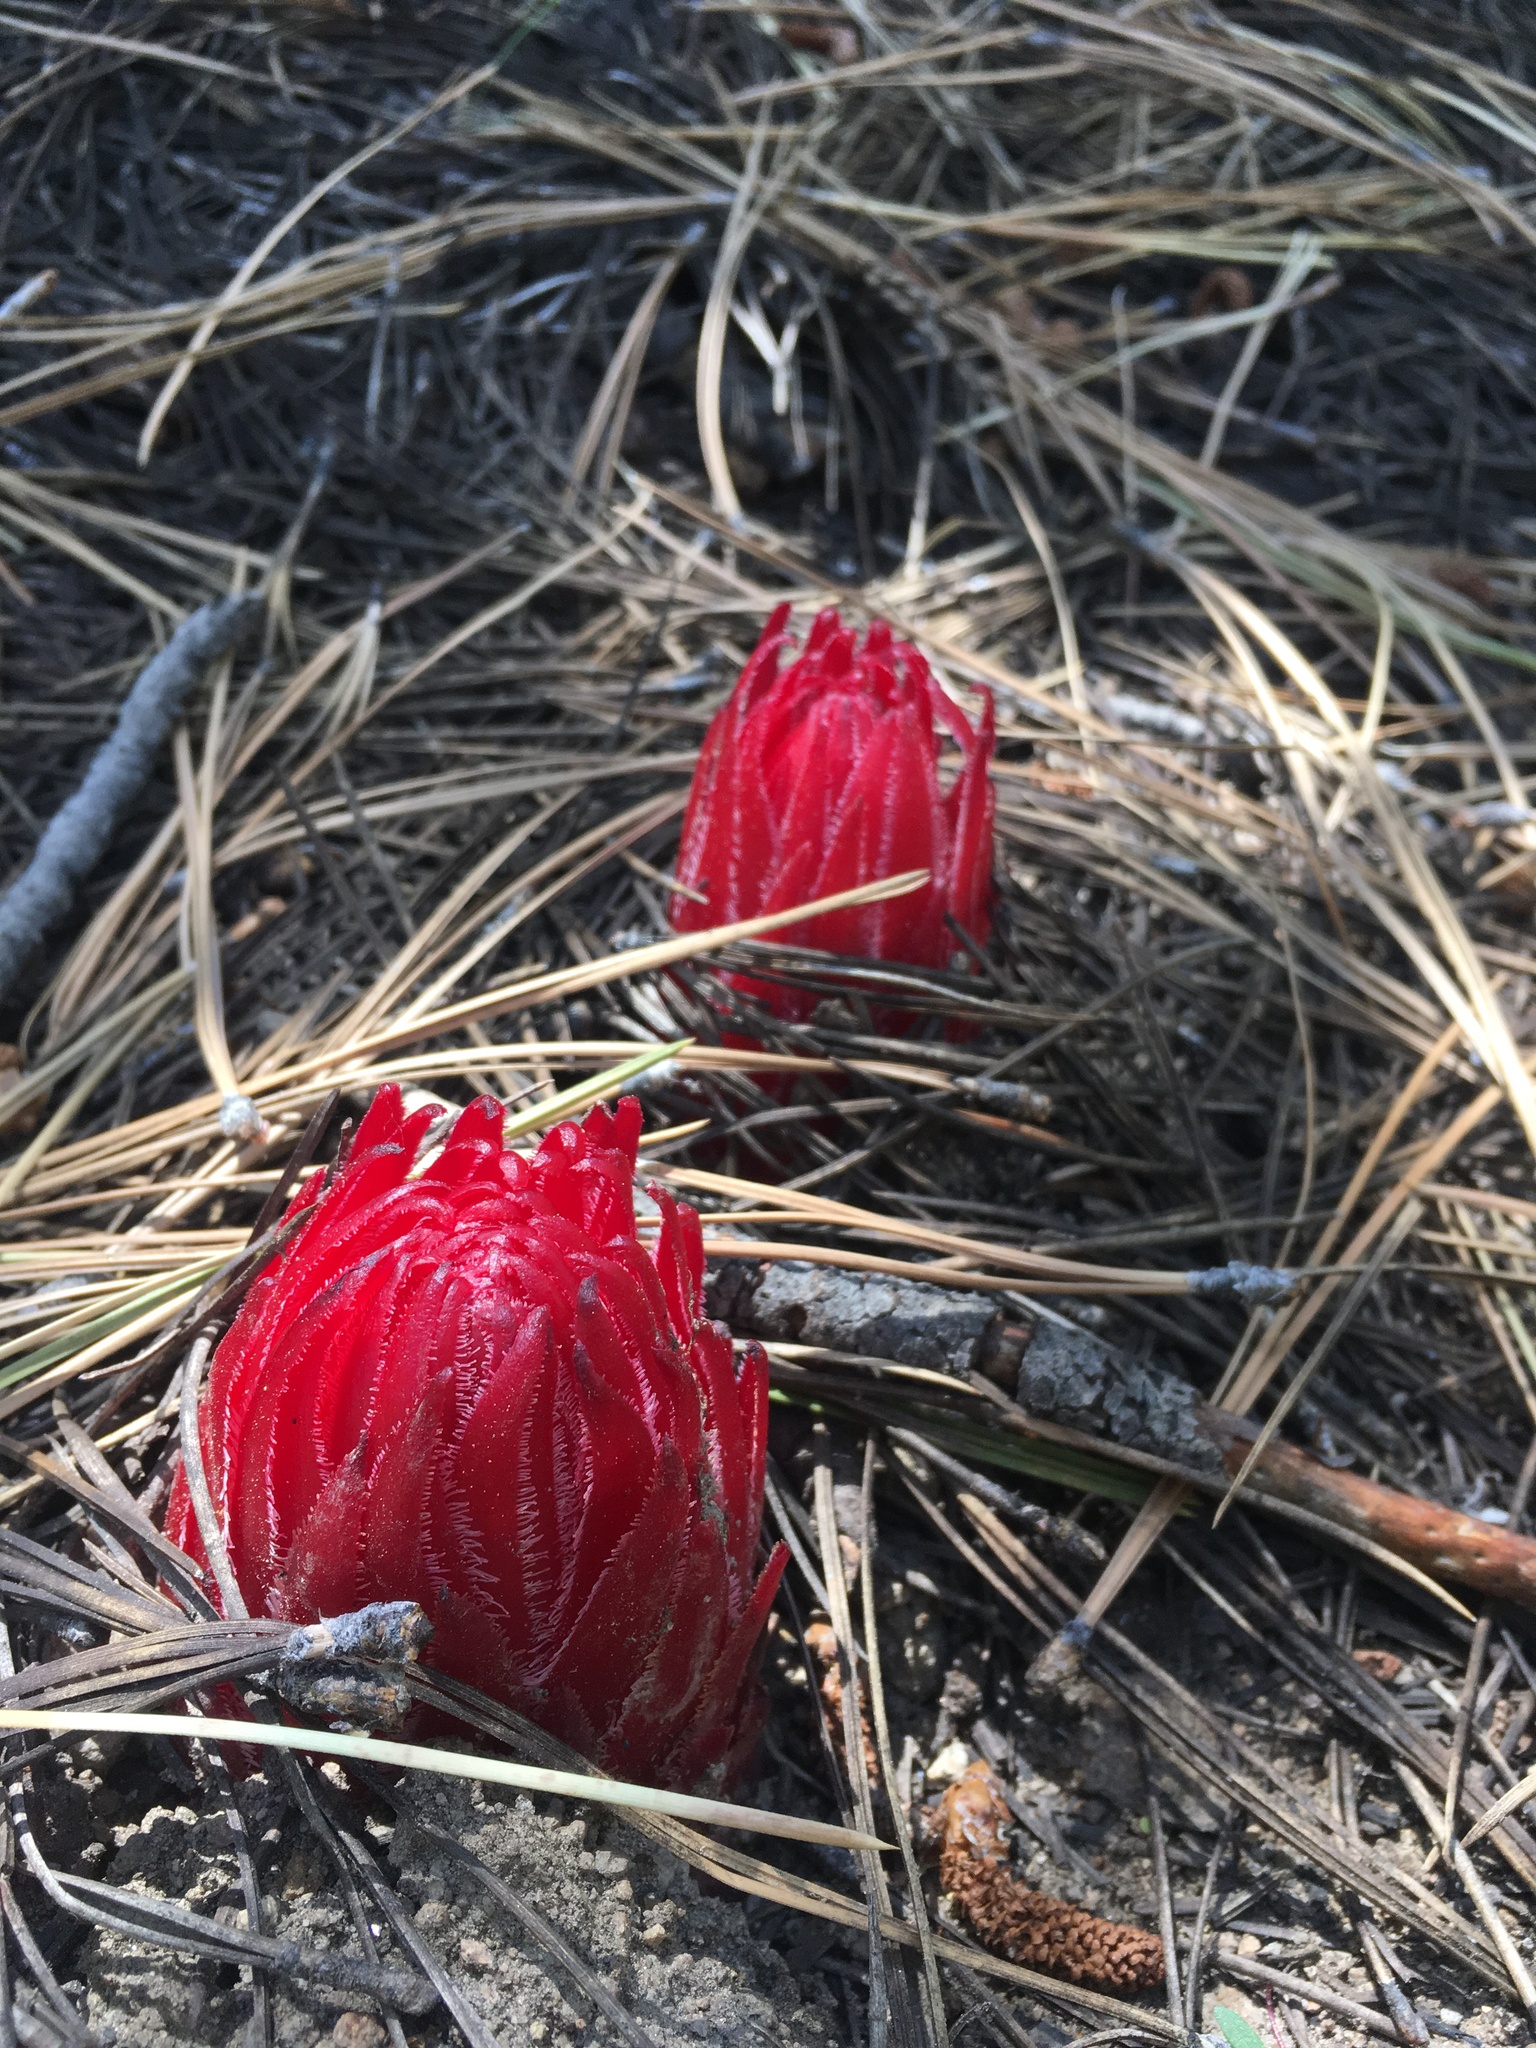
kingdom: Plantae
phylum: Tracheophyta
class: Magnoliopsida
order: Ericales
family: Ericaceae
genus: Sarcodes
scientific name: Sarcodes sanguinea
